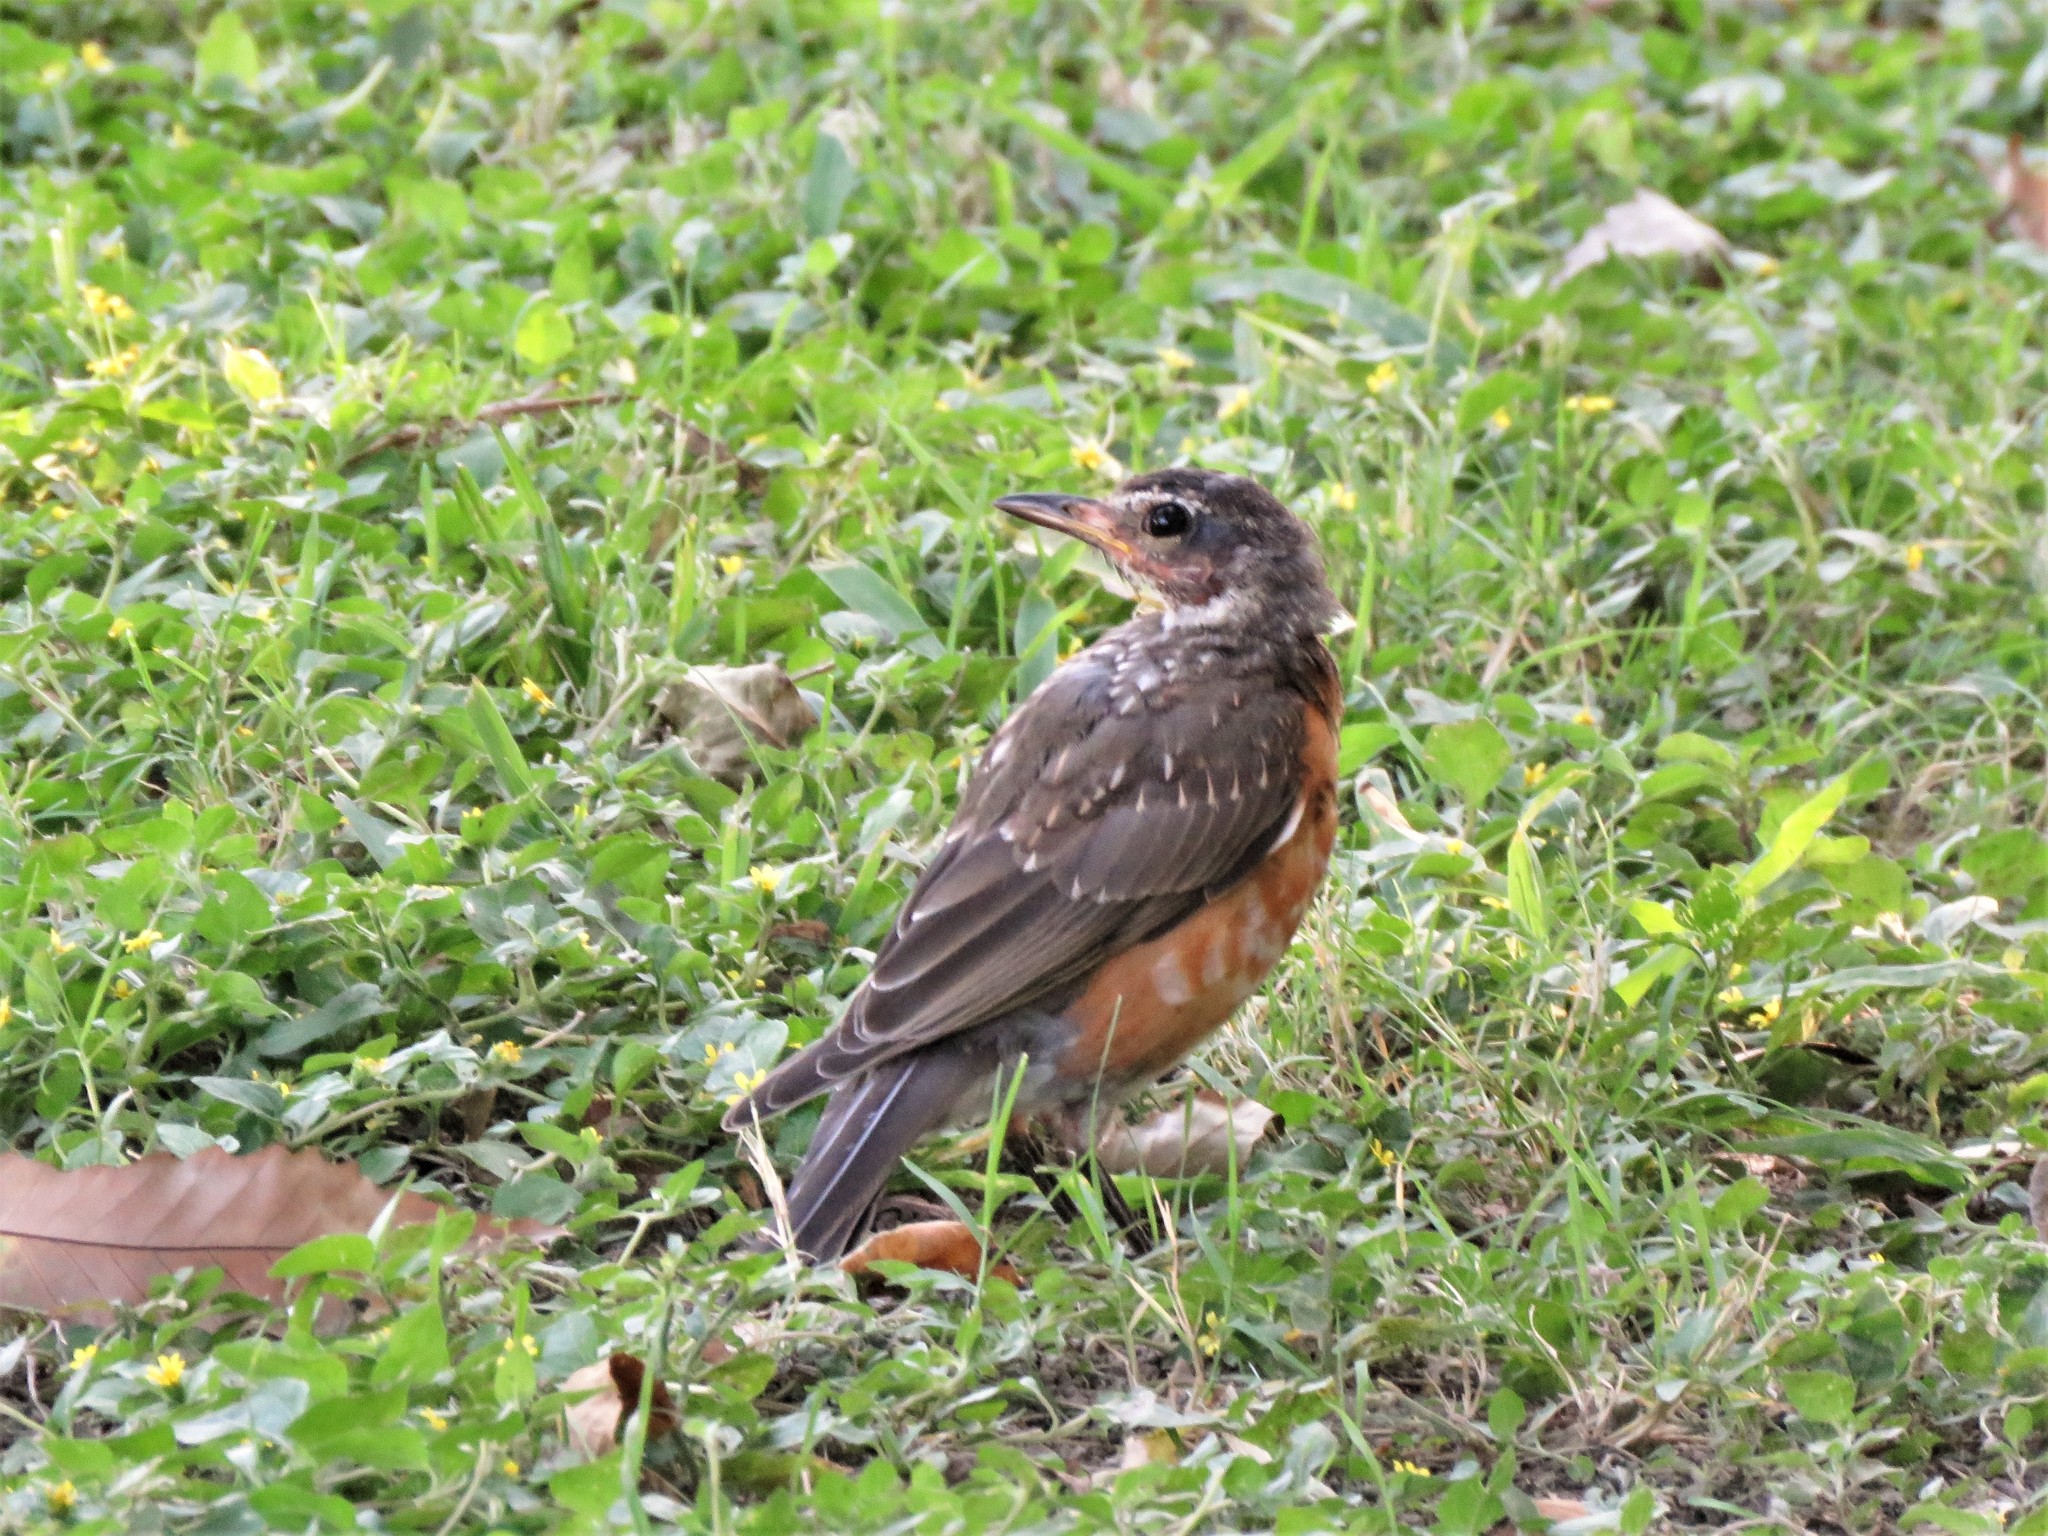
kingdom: Animalia
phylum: Chordata
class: Aves
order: Passeriformes
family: Turdidae
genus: Turdus
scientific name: Turdus migratorius
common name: American robin
